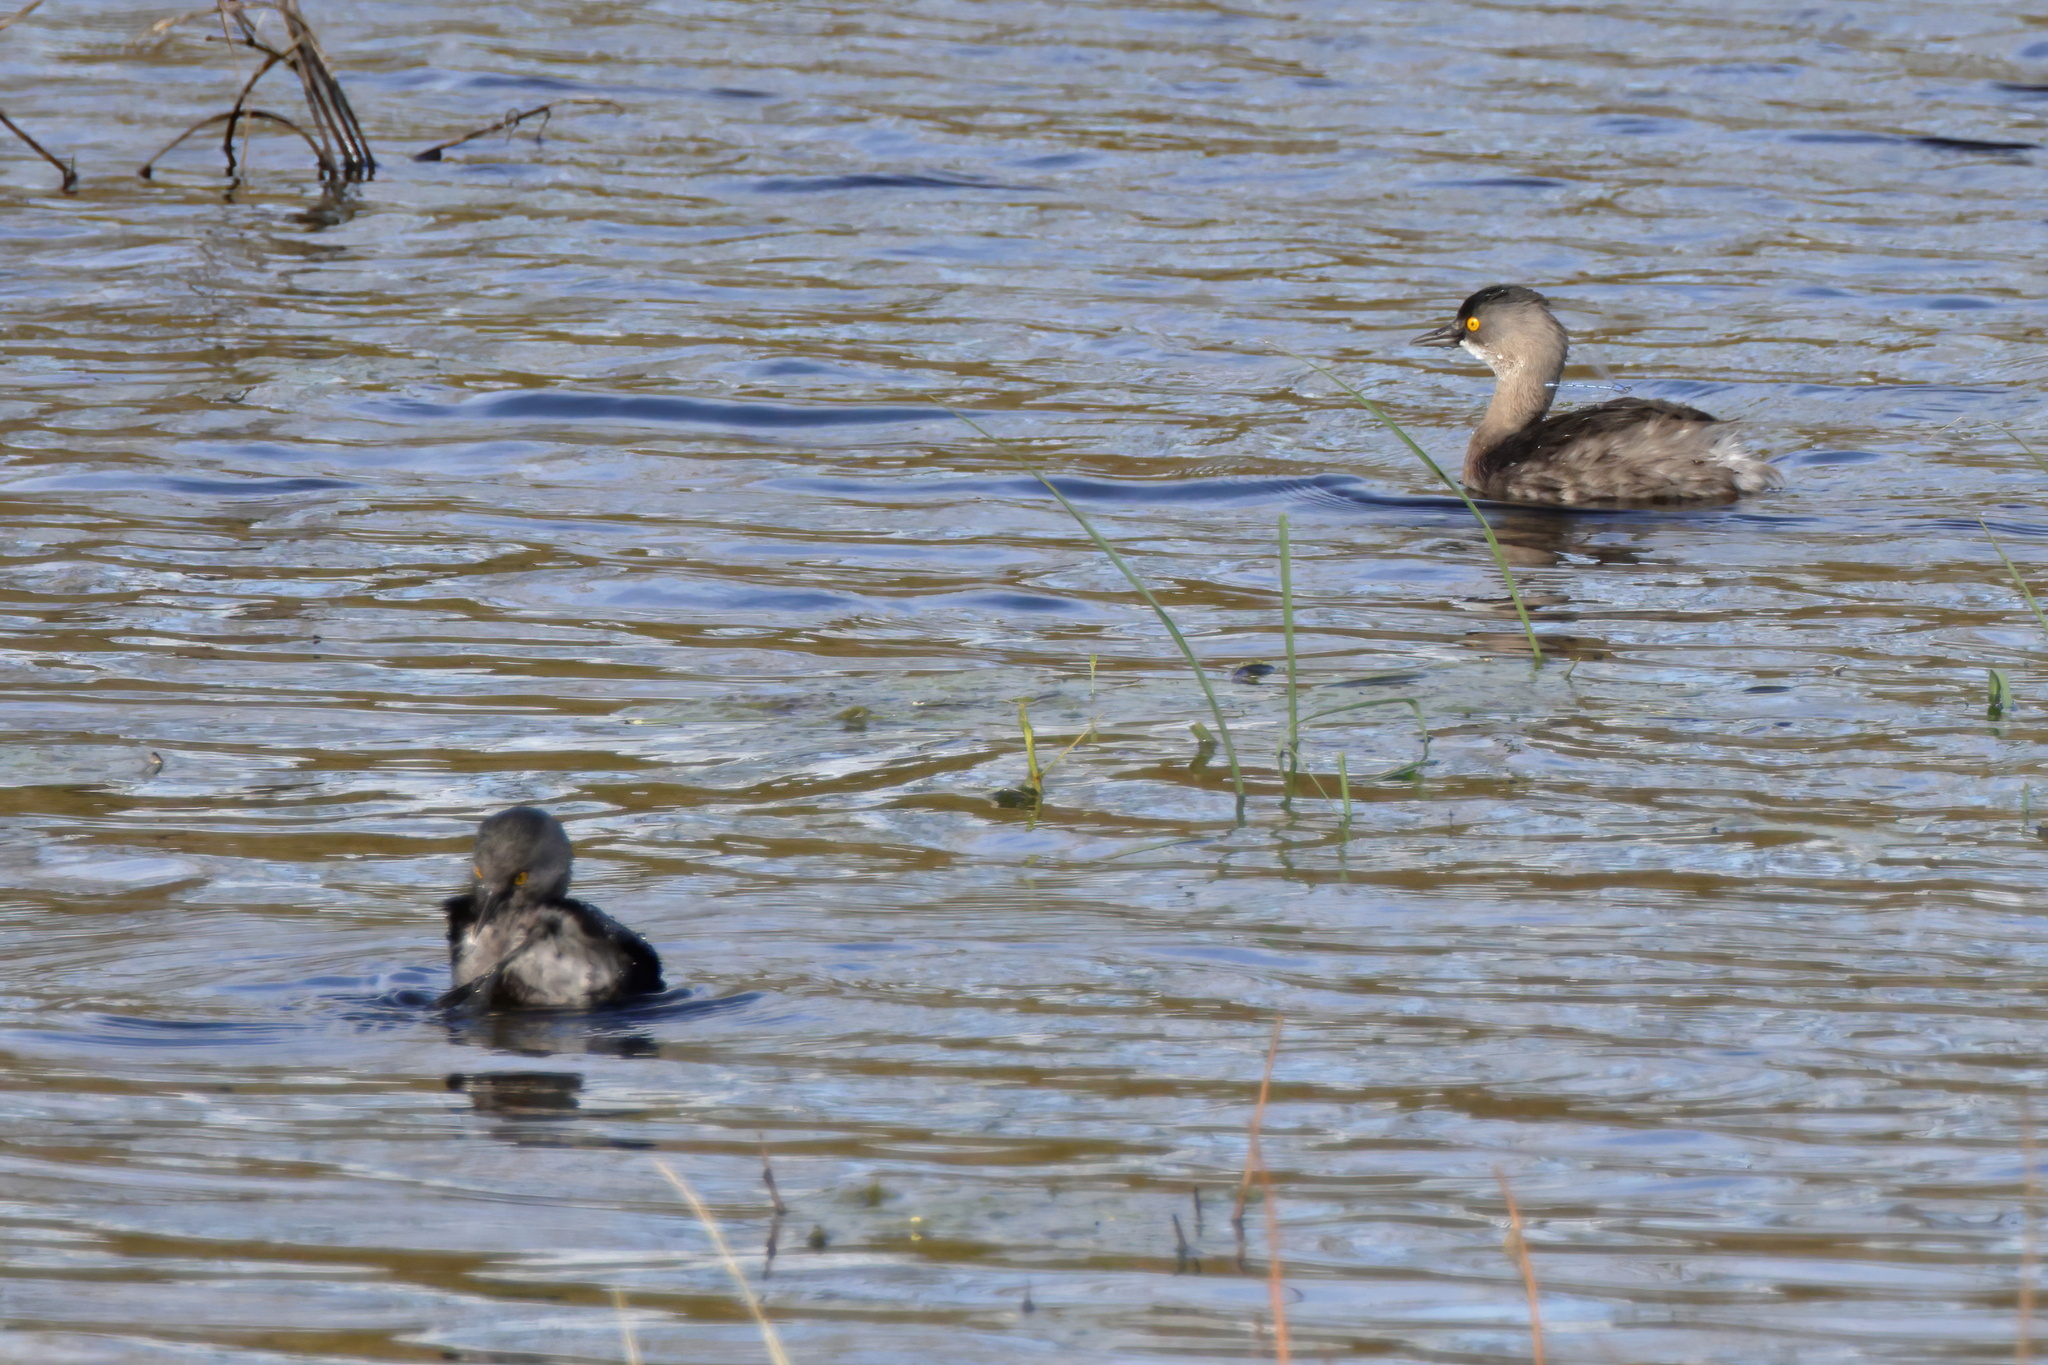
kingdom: Animalia
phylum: Chordata
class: Aves
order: Podicipediformes
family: Podicipedidae
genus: Tachybaptus
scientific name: Tachybaptus dominicus
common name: Least grebe
